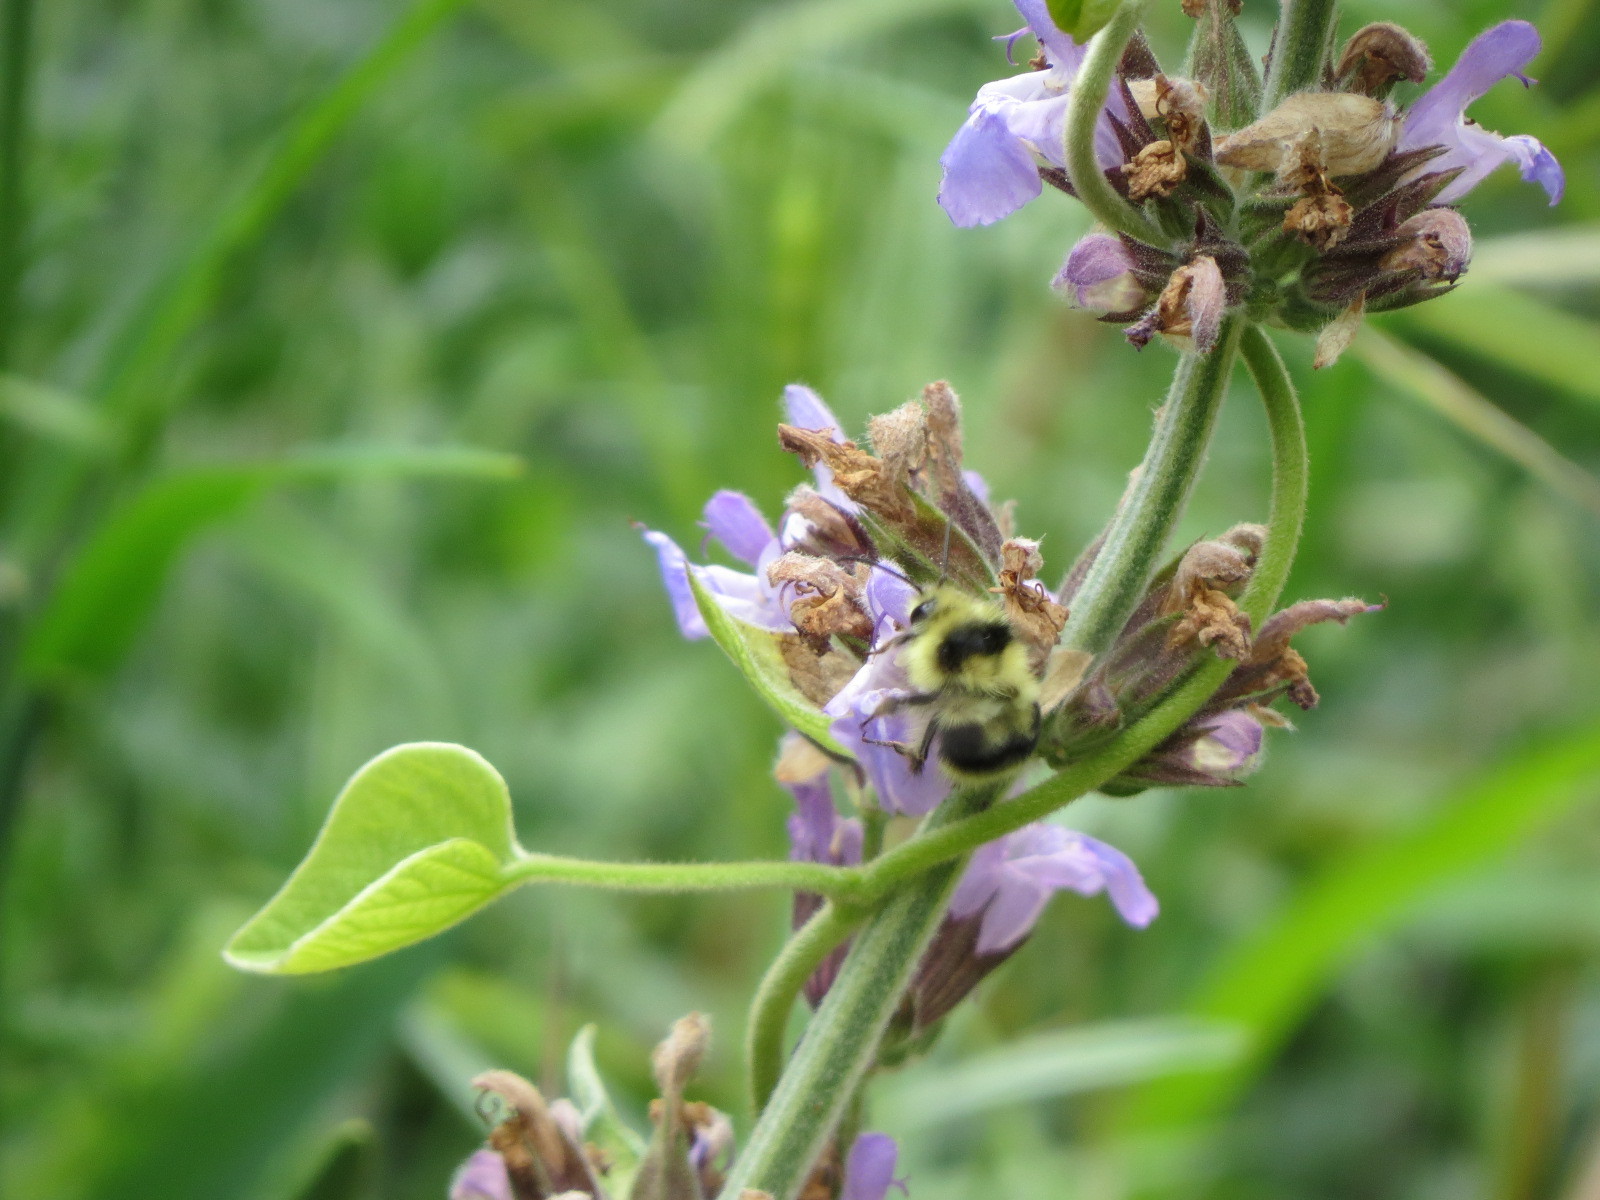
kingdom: Animalia
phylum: Arthropoda
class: Insecta
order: Hymenoptera
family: Apidae
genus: Bombus
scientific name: Bombus melanopygus
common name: Black tail bumble bee
